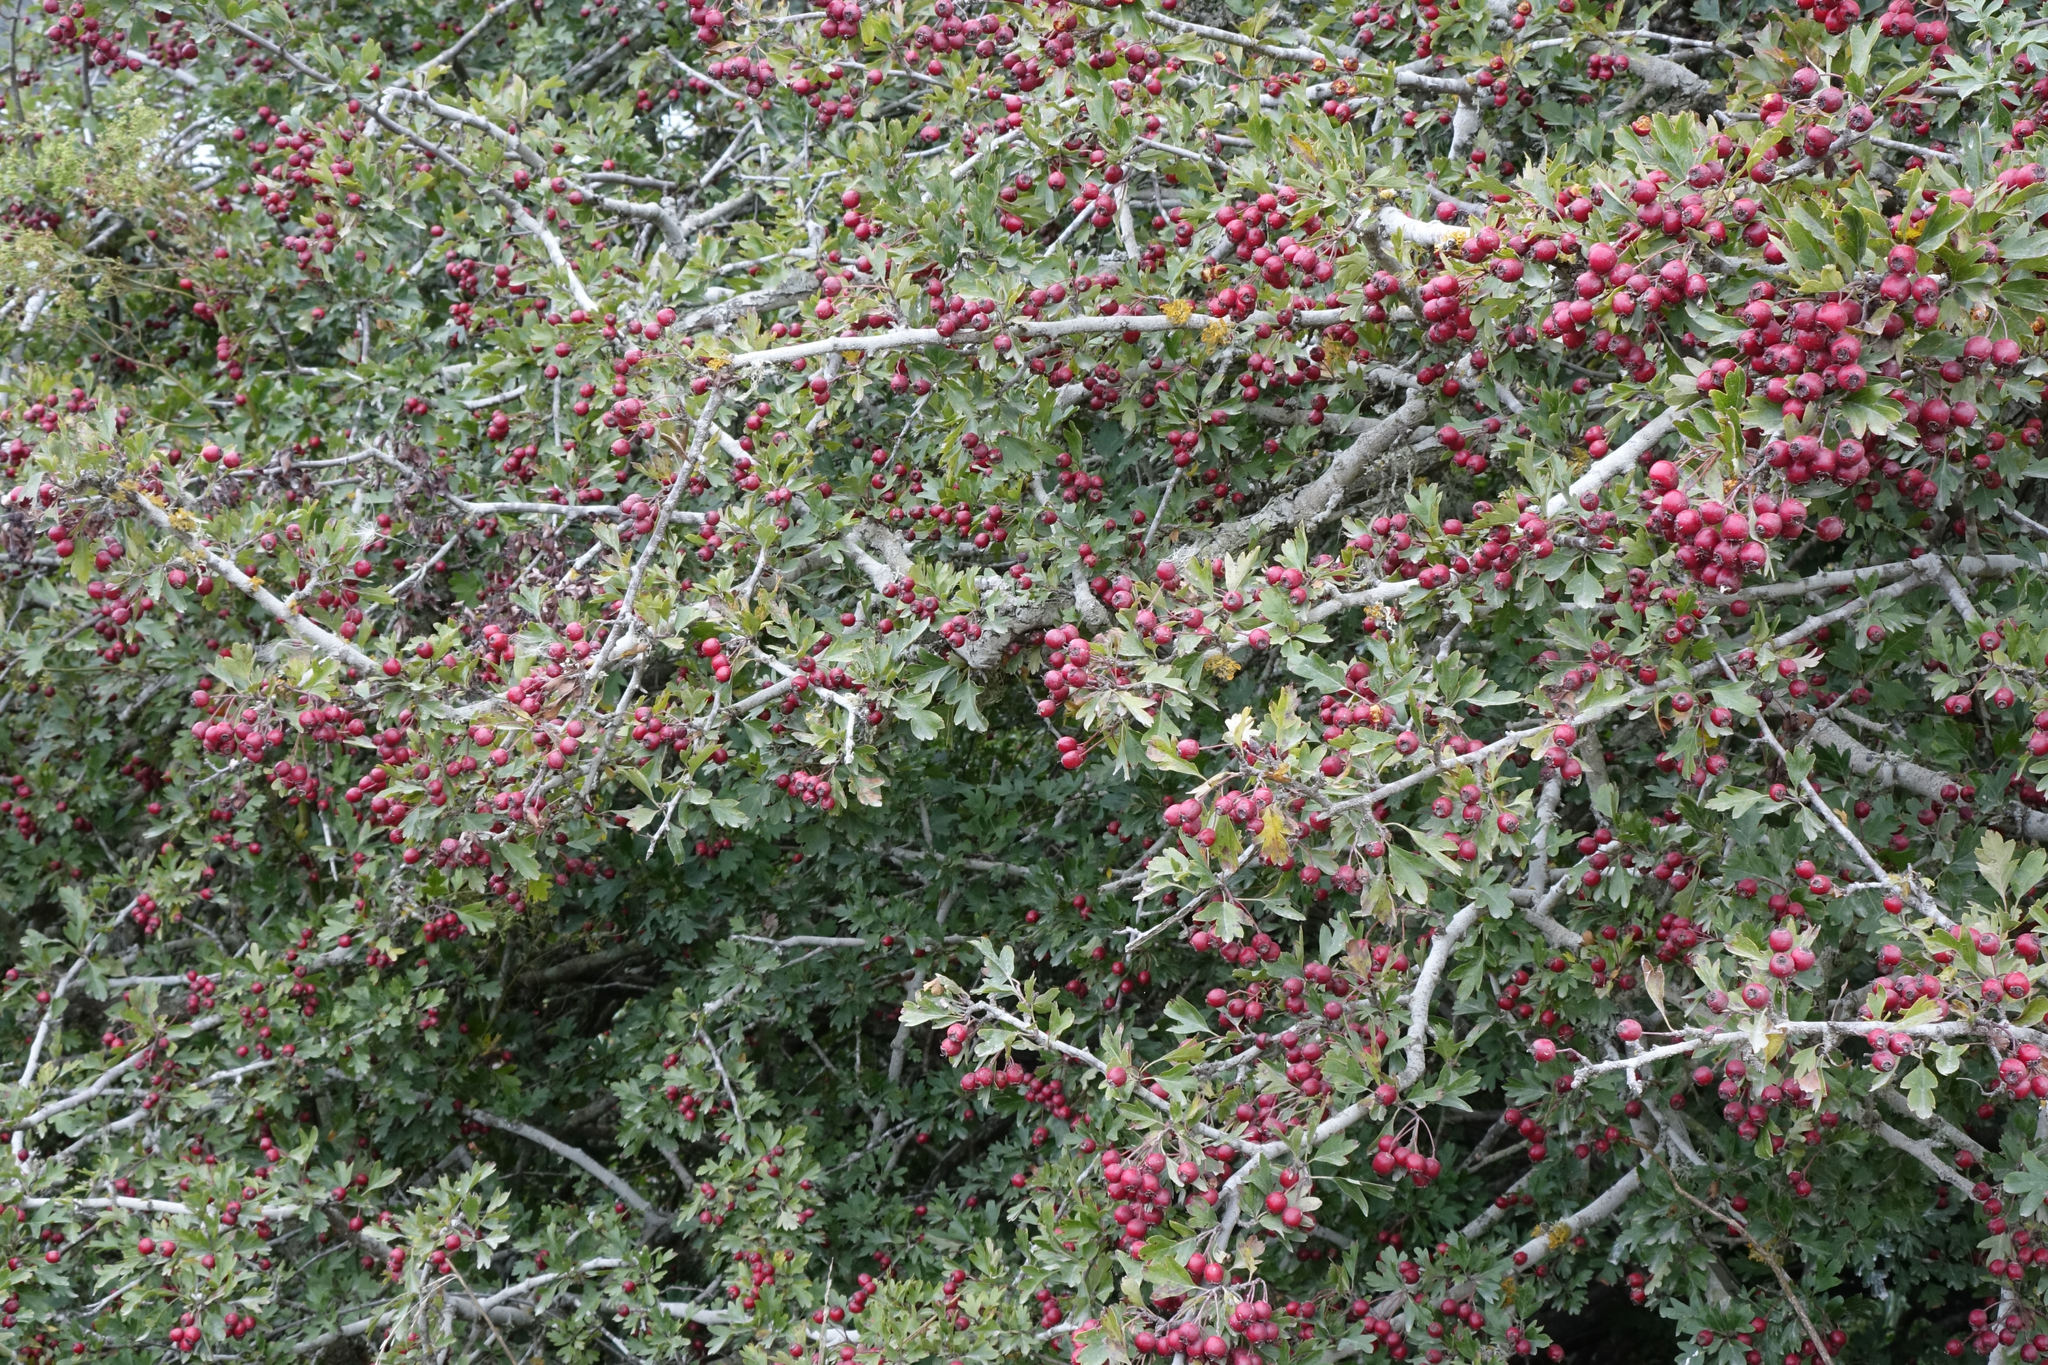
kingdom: Plantae
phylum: Tracheophyta
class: Magnoliopsida
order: Rosales
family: Rosaceae
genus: Crataegus
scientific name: Crataegus monogyna
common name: Hawthorn
